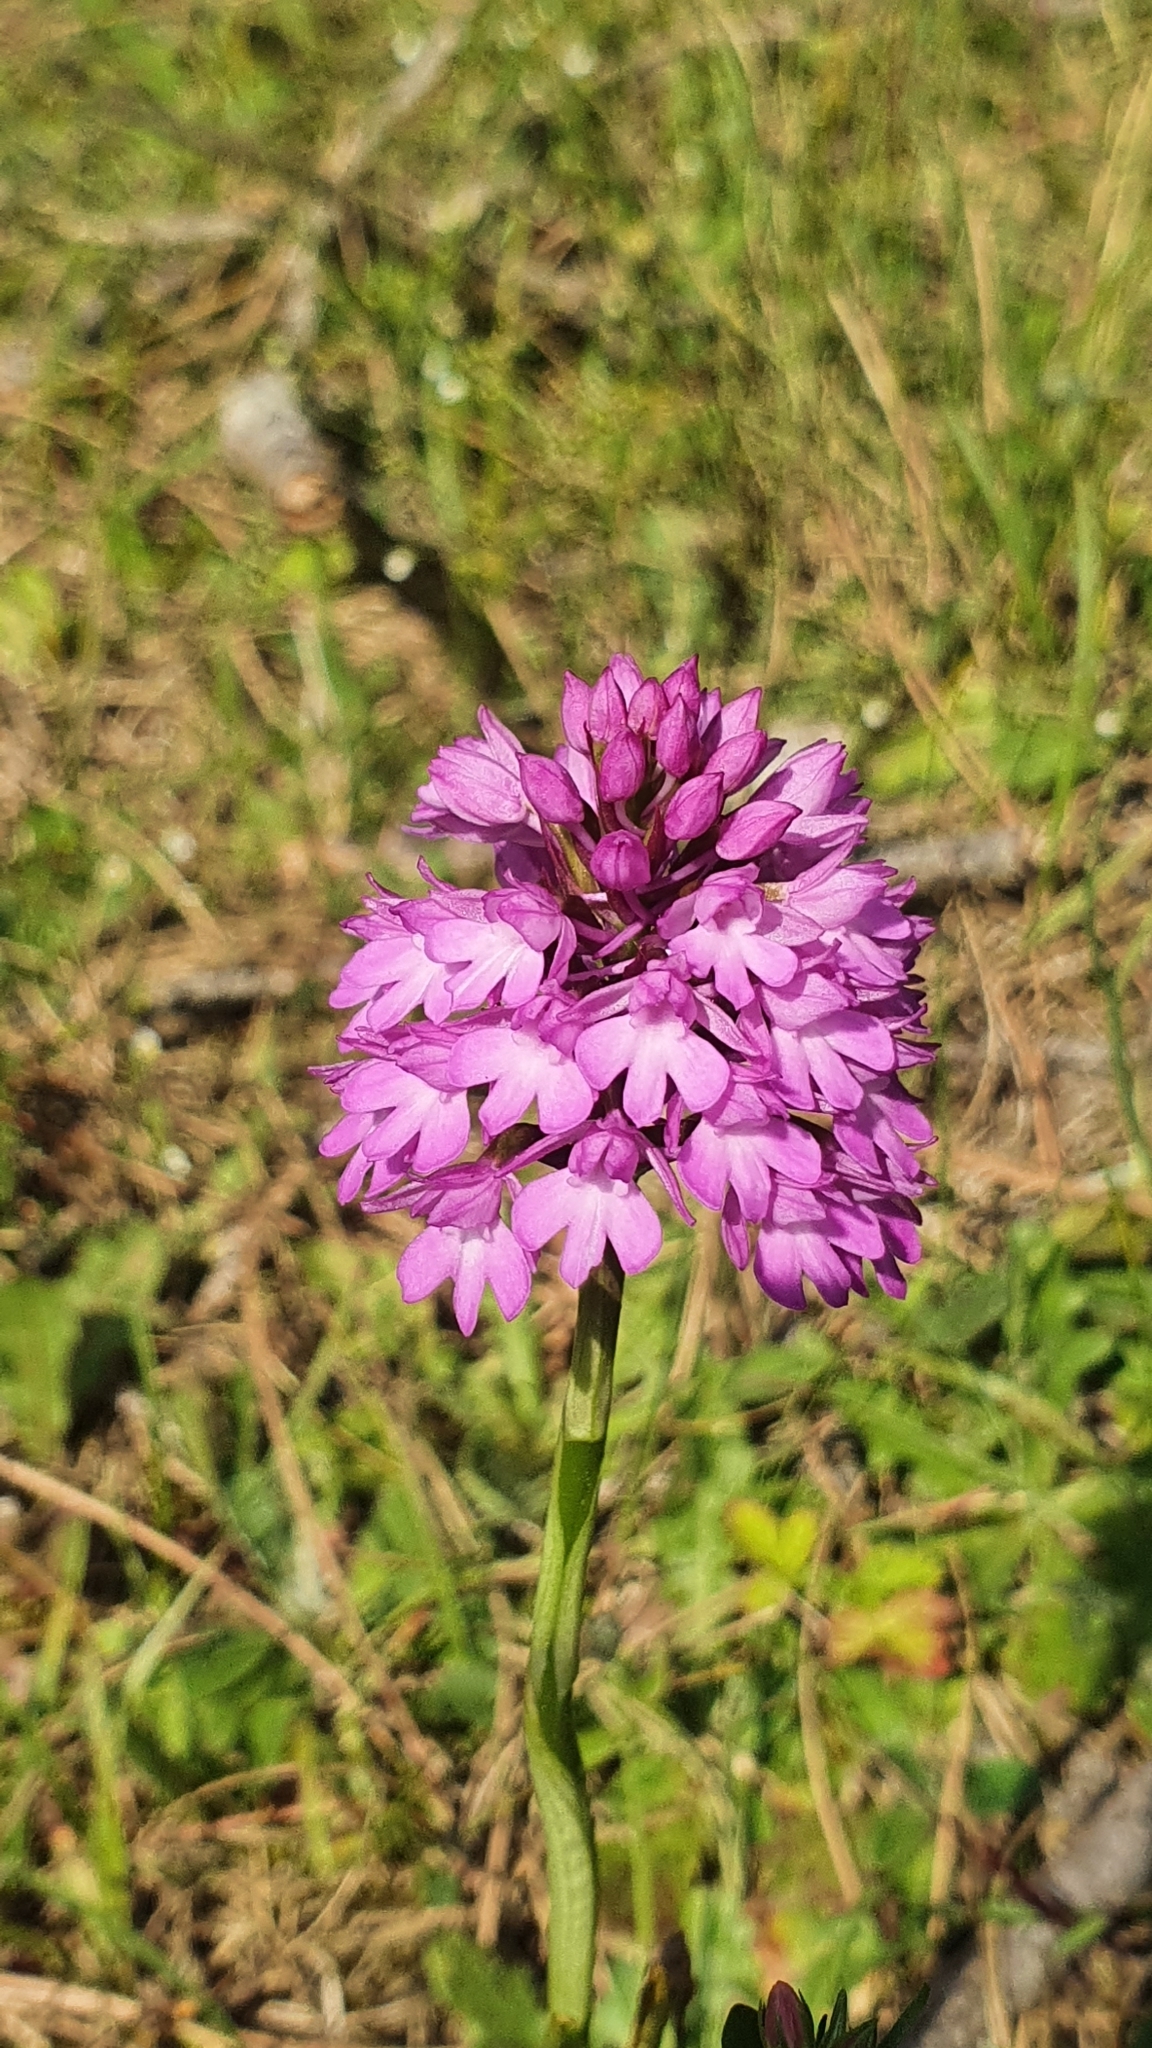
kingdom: Plantae
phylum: Tracheophyta
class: Liliopsida
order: Asparagales
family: Orchidaceae
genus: Anacamptis
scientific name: Anacamptis pyramidalis
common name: Pyramidal orchid
